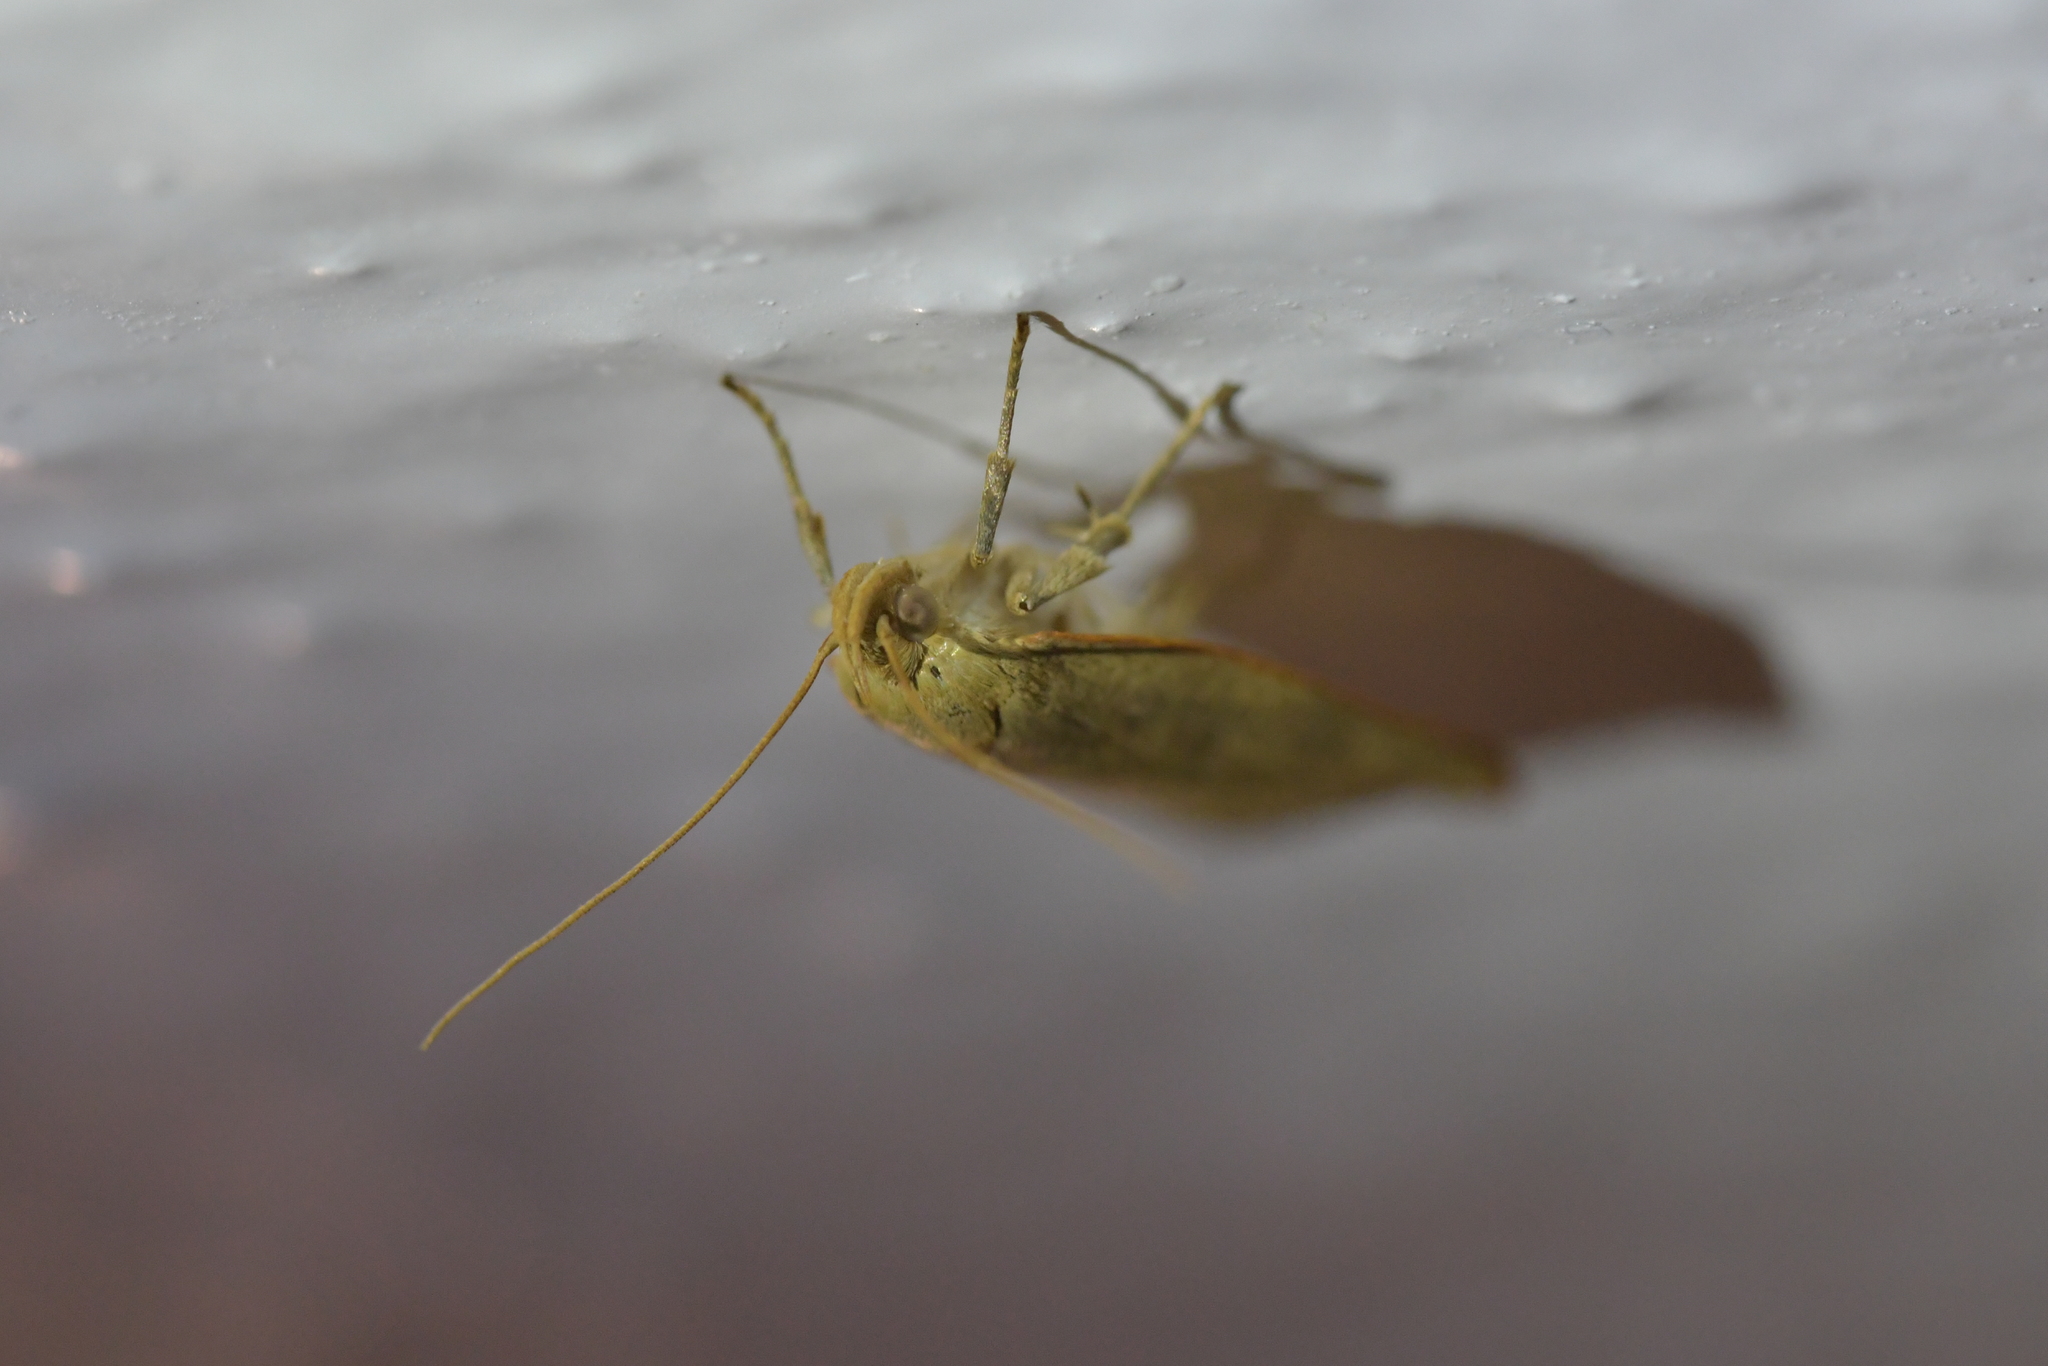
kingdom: Animalia
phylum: Arthropoda
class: Insecta
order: Lepidoptera
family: Depressariidae
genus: Phaeosaces
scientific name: Phaeosaces coarctatella
